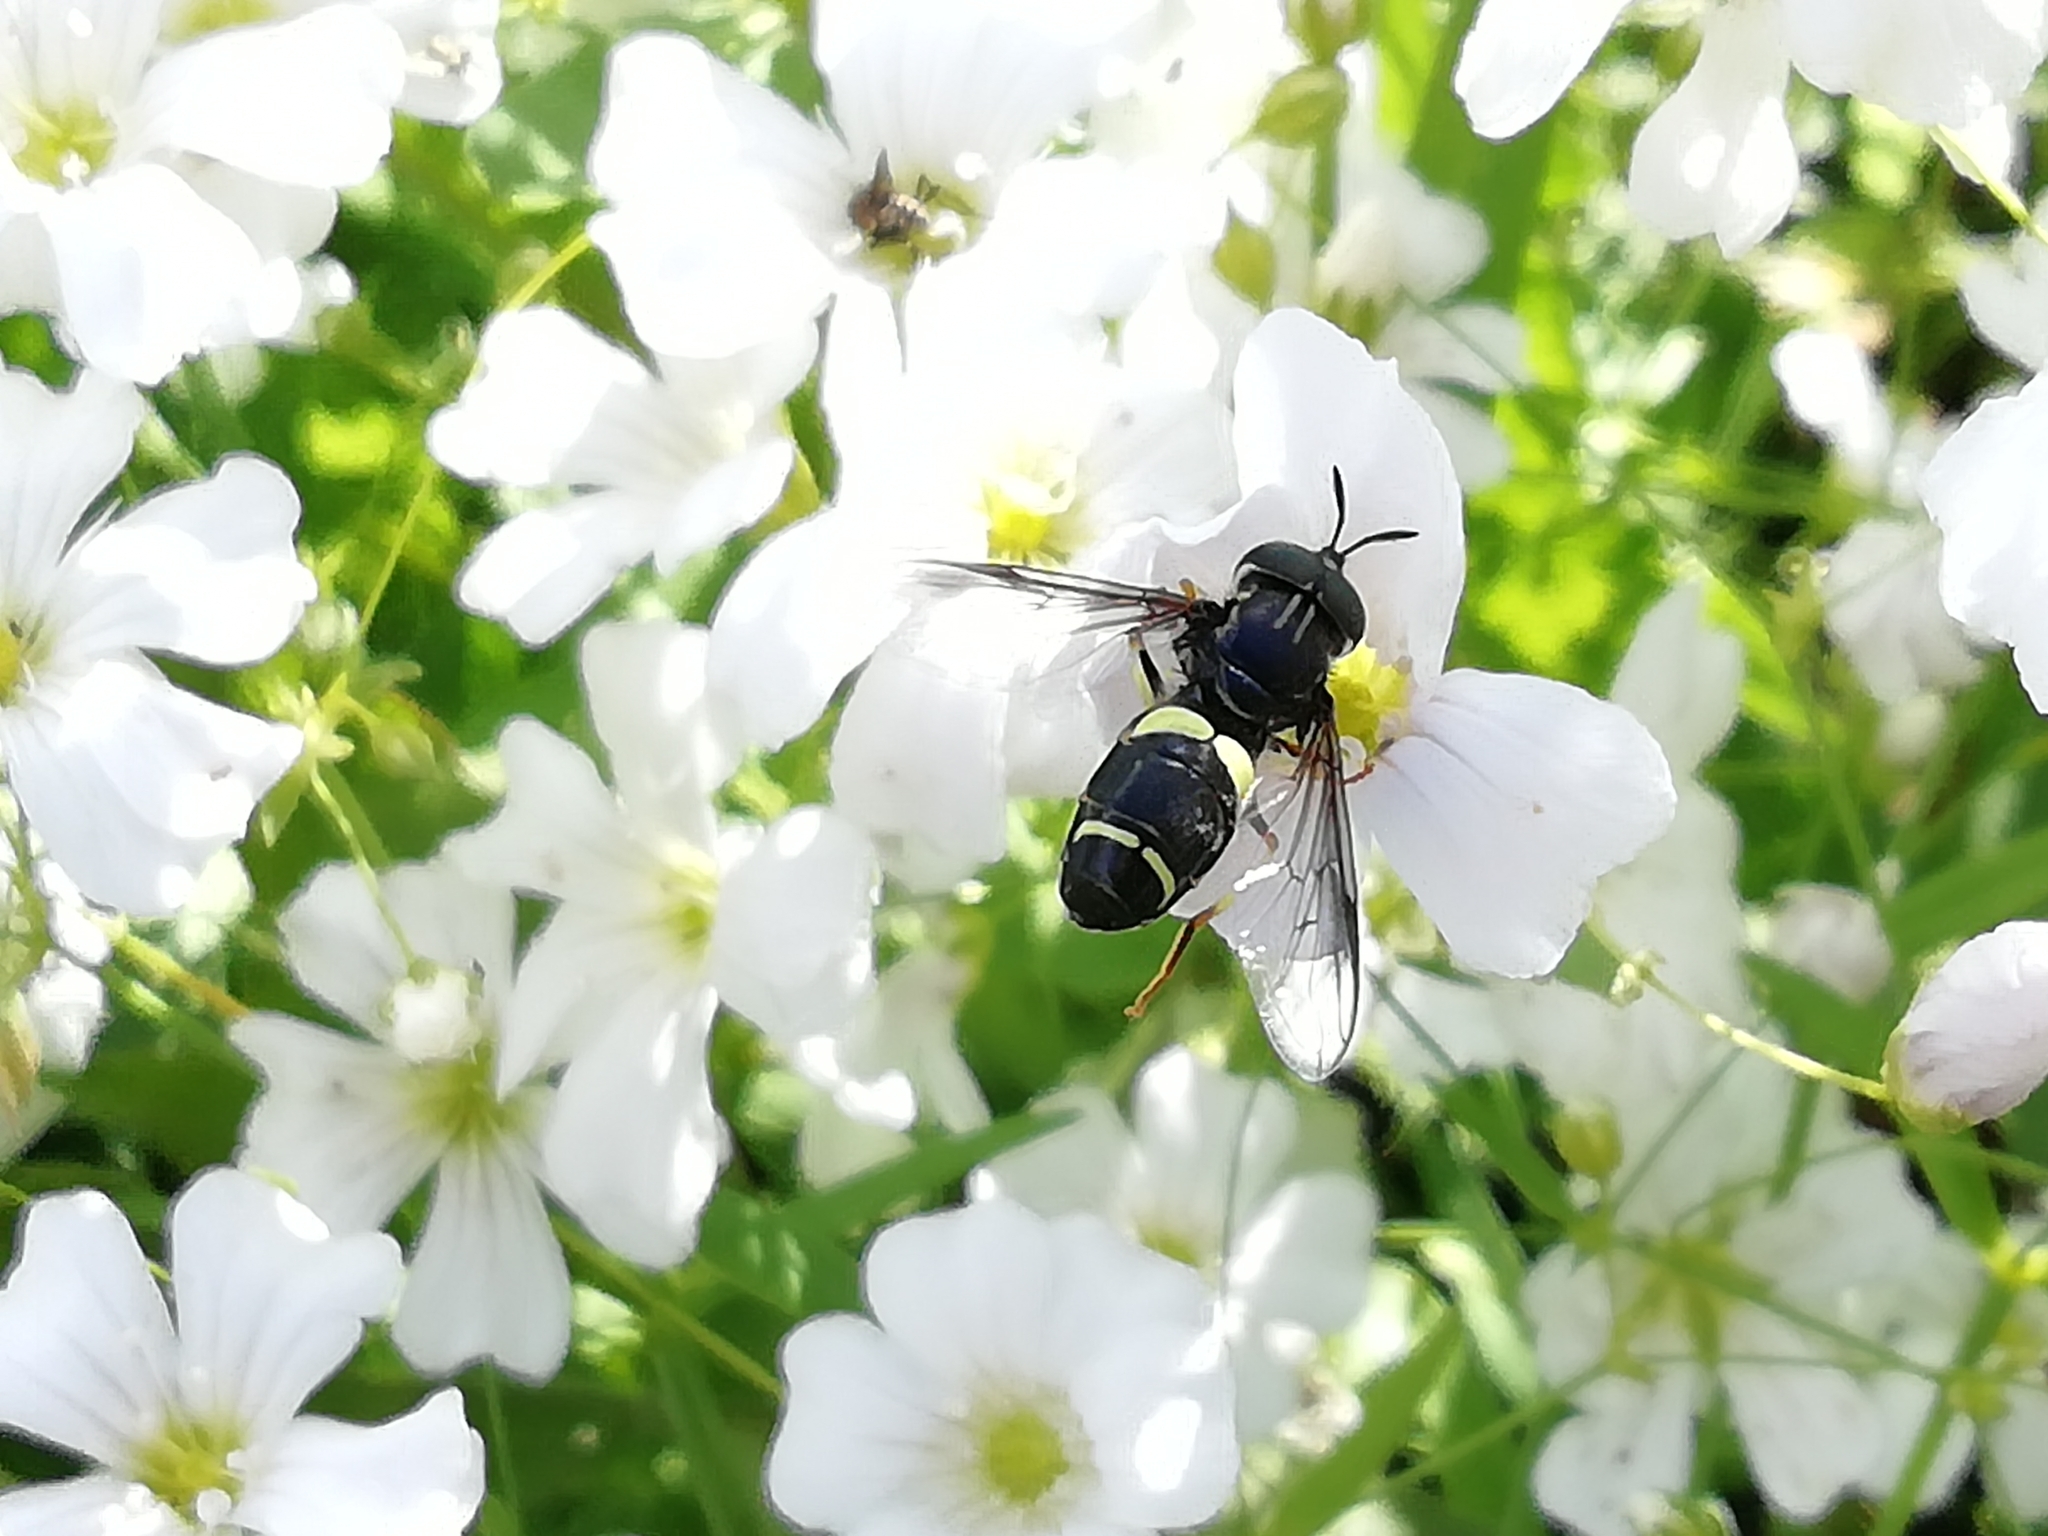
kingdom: Animalia
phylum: Arthropoda
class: Insecta
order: Diptera
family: Syrphidae
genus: Chrysotoxum
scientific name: Chrysotoxum bicincta
